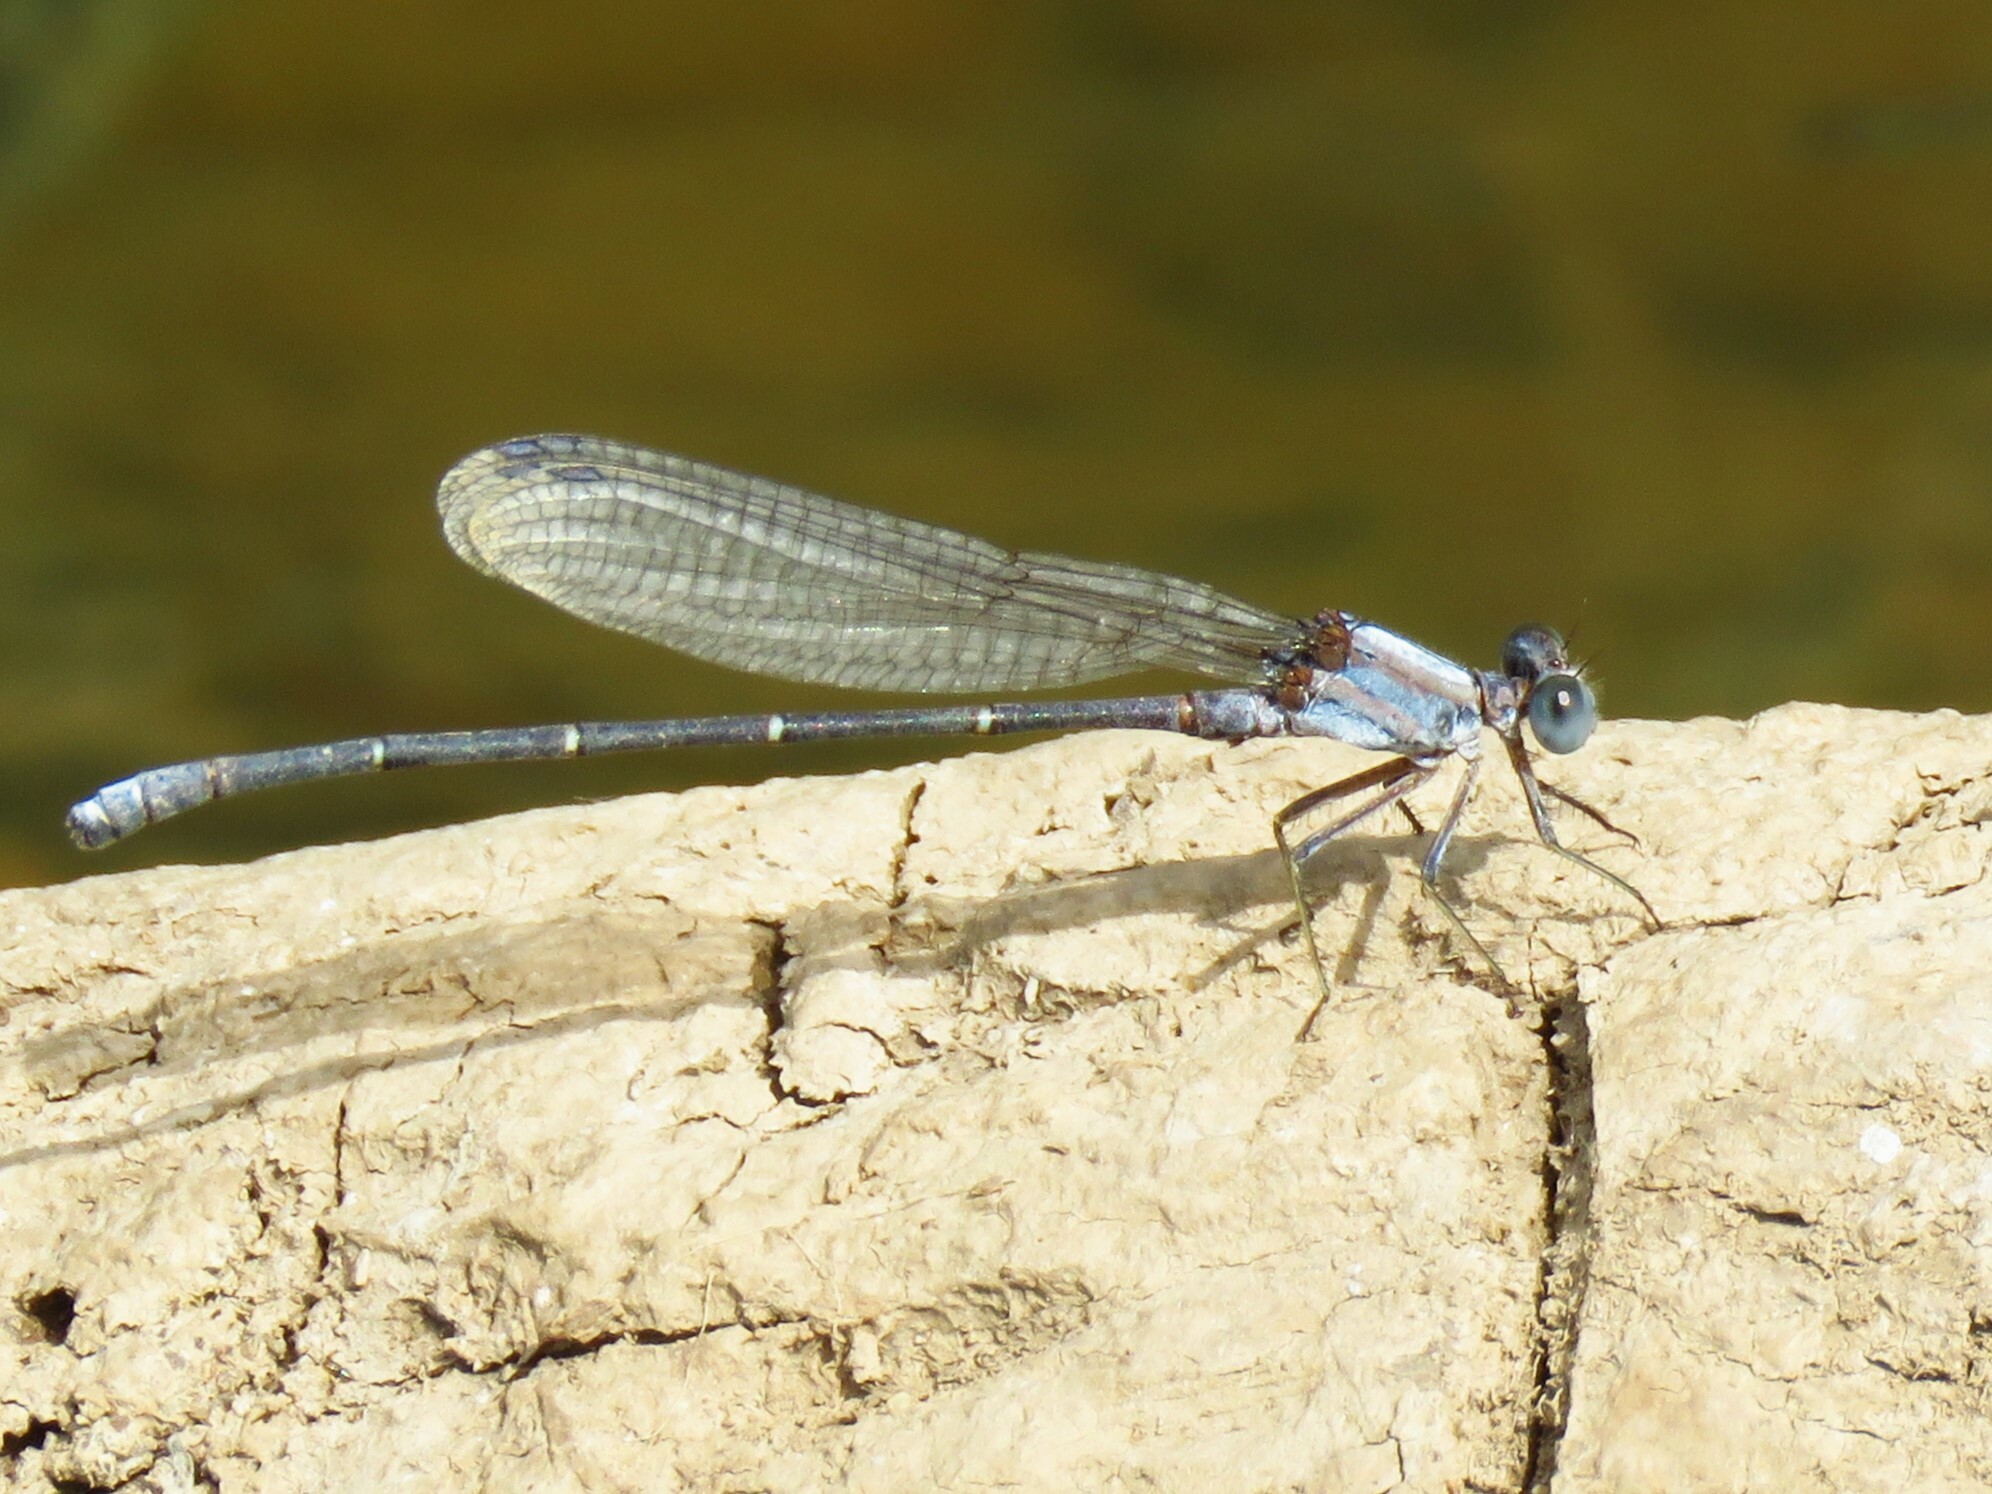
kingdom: Animalia
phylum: Arthropoda
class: Insecta
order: Odonata
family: Coenagrionidae
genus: Argia
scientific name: Argia moesta
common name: Powdered dancer
